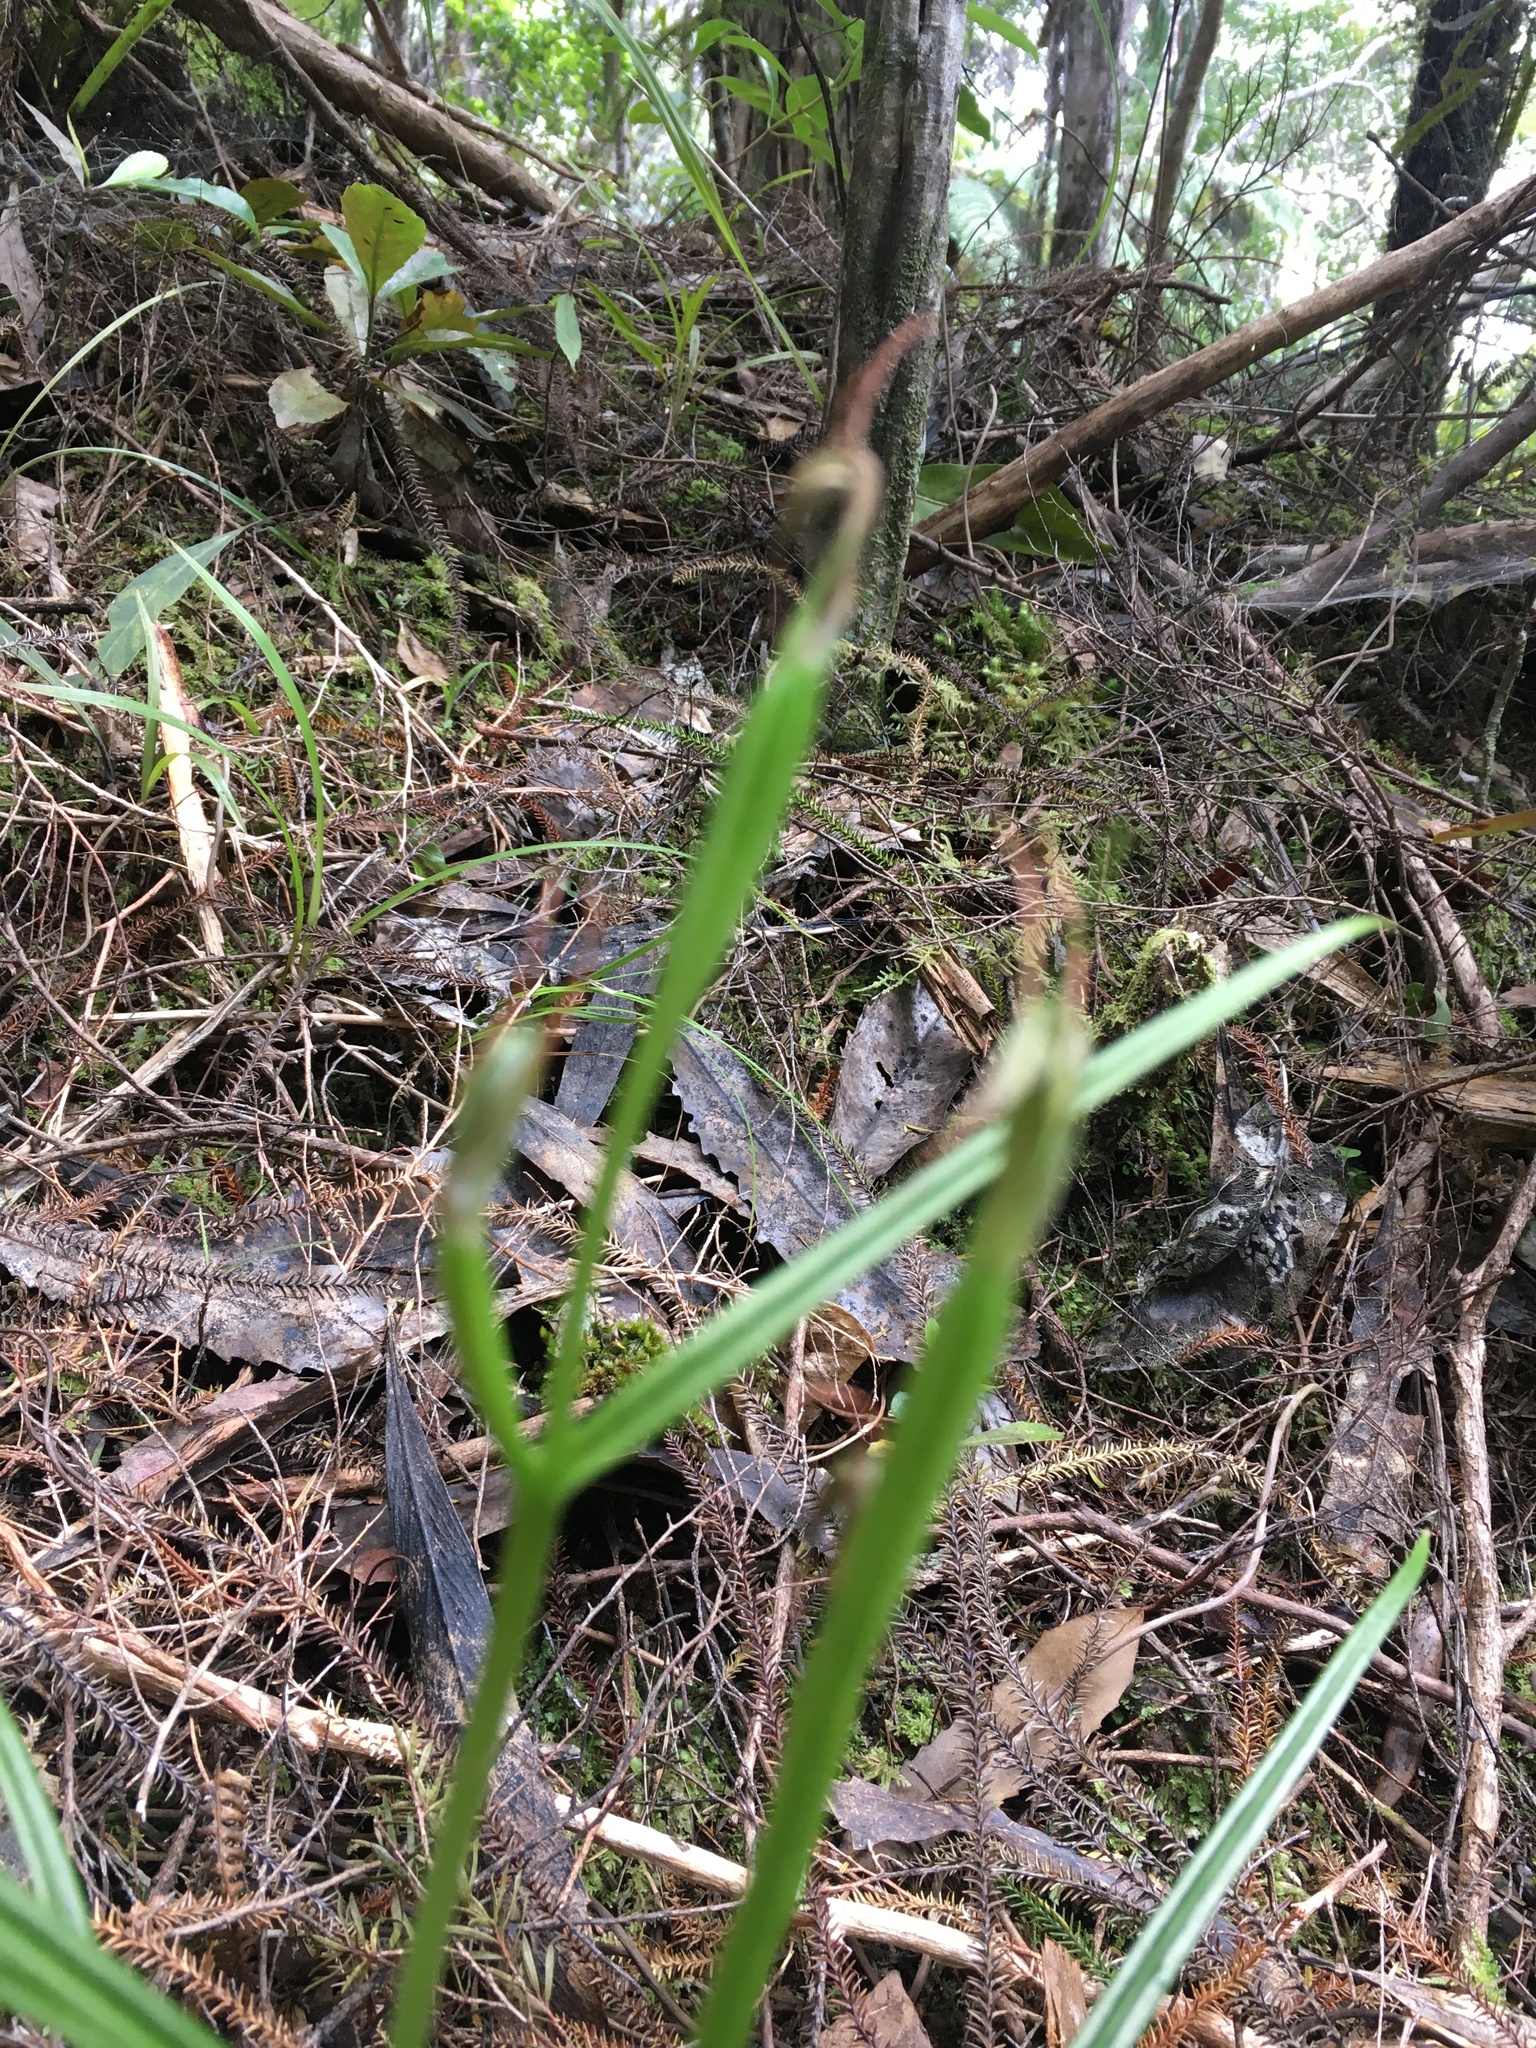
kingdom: Plantae
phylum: Tracheophyta
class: Liliopsida
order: Asparagales
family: Orchidaceae
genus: Pterostylis
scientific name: Pterostylis graminea
